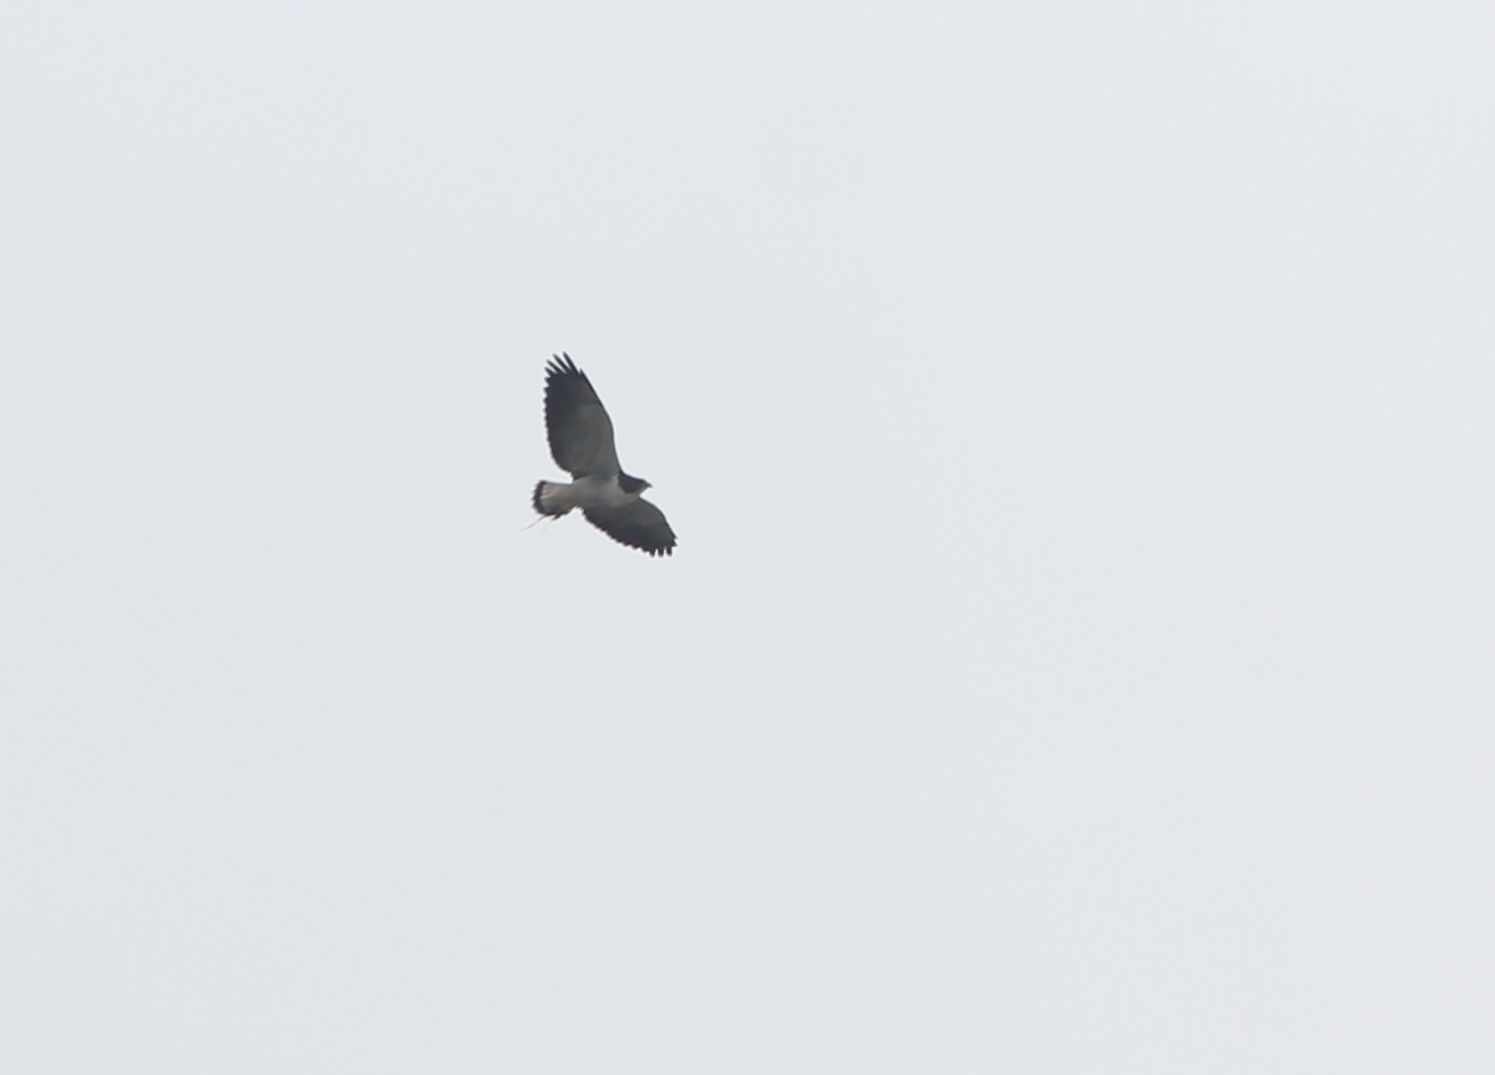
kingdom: Animalia
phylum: Chordata
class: Aves
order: Accipitriformes
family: Accipitridae
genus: Buteo
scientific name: Buteo albicaudatus
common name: White-tailed hawk
